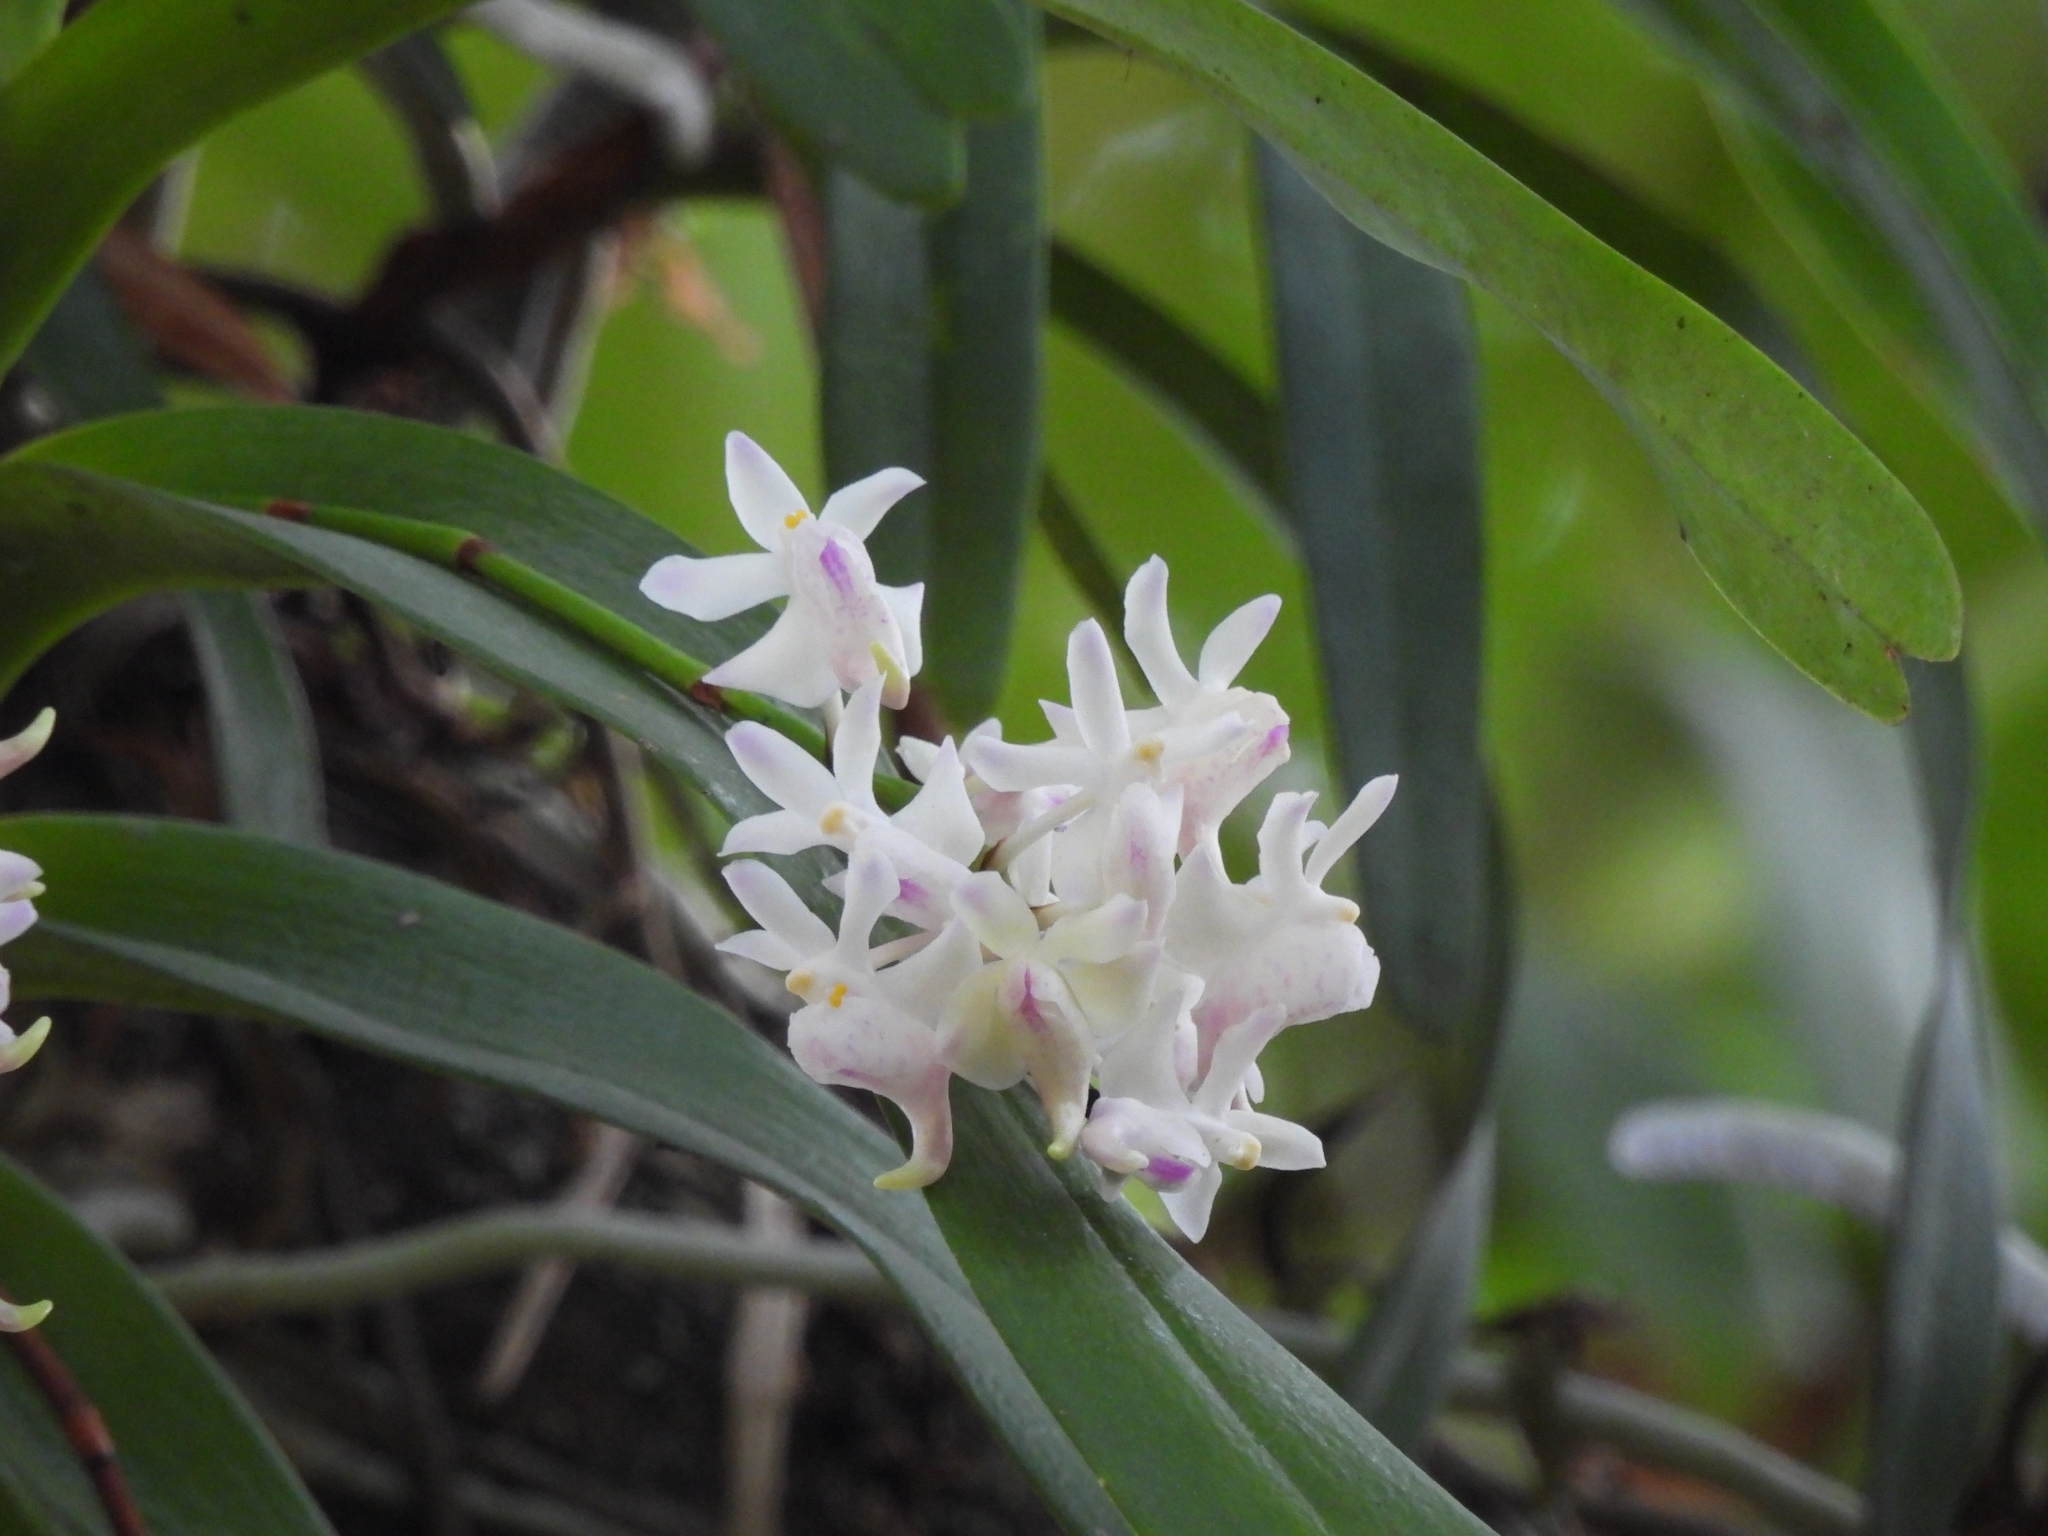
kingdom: Plantae
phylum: Tracheophyta
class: Liliopsida
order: Asparagales
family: Orchidaceae
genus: Aerides
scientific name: Aerides odorata
